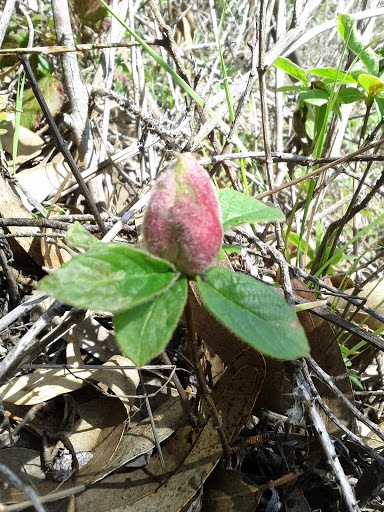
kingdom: Animalia
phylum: Arthropoda
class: Insecta
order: Hymenoptera
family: Tenthredinidae
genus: Blennogeneris
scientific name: Blennogeneris spissipes
